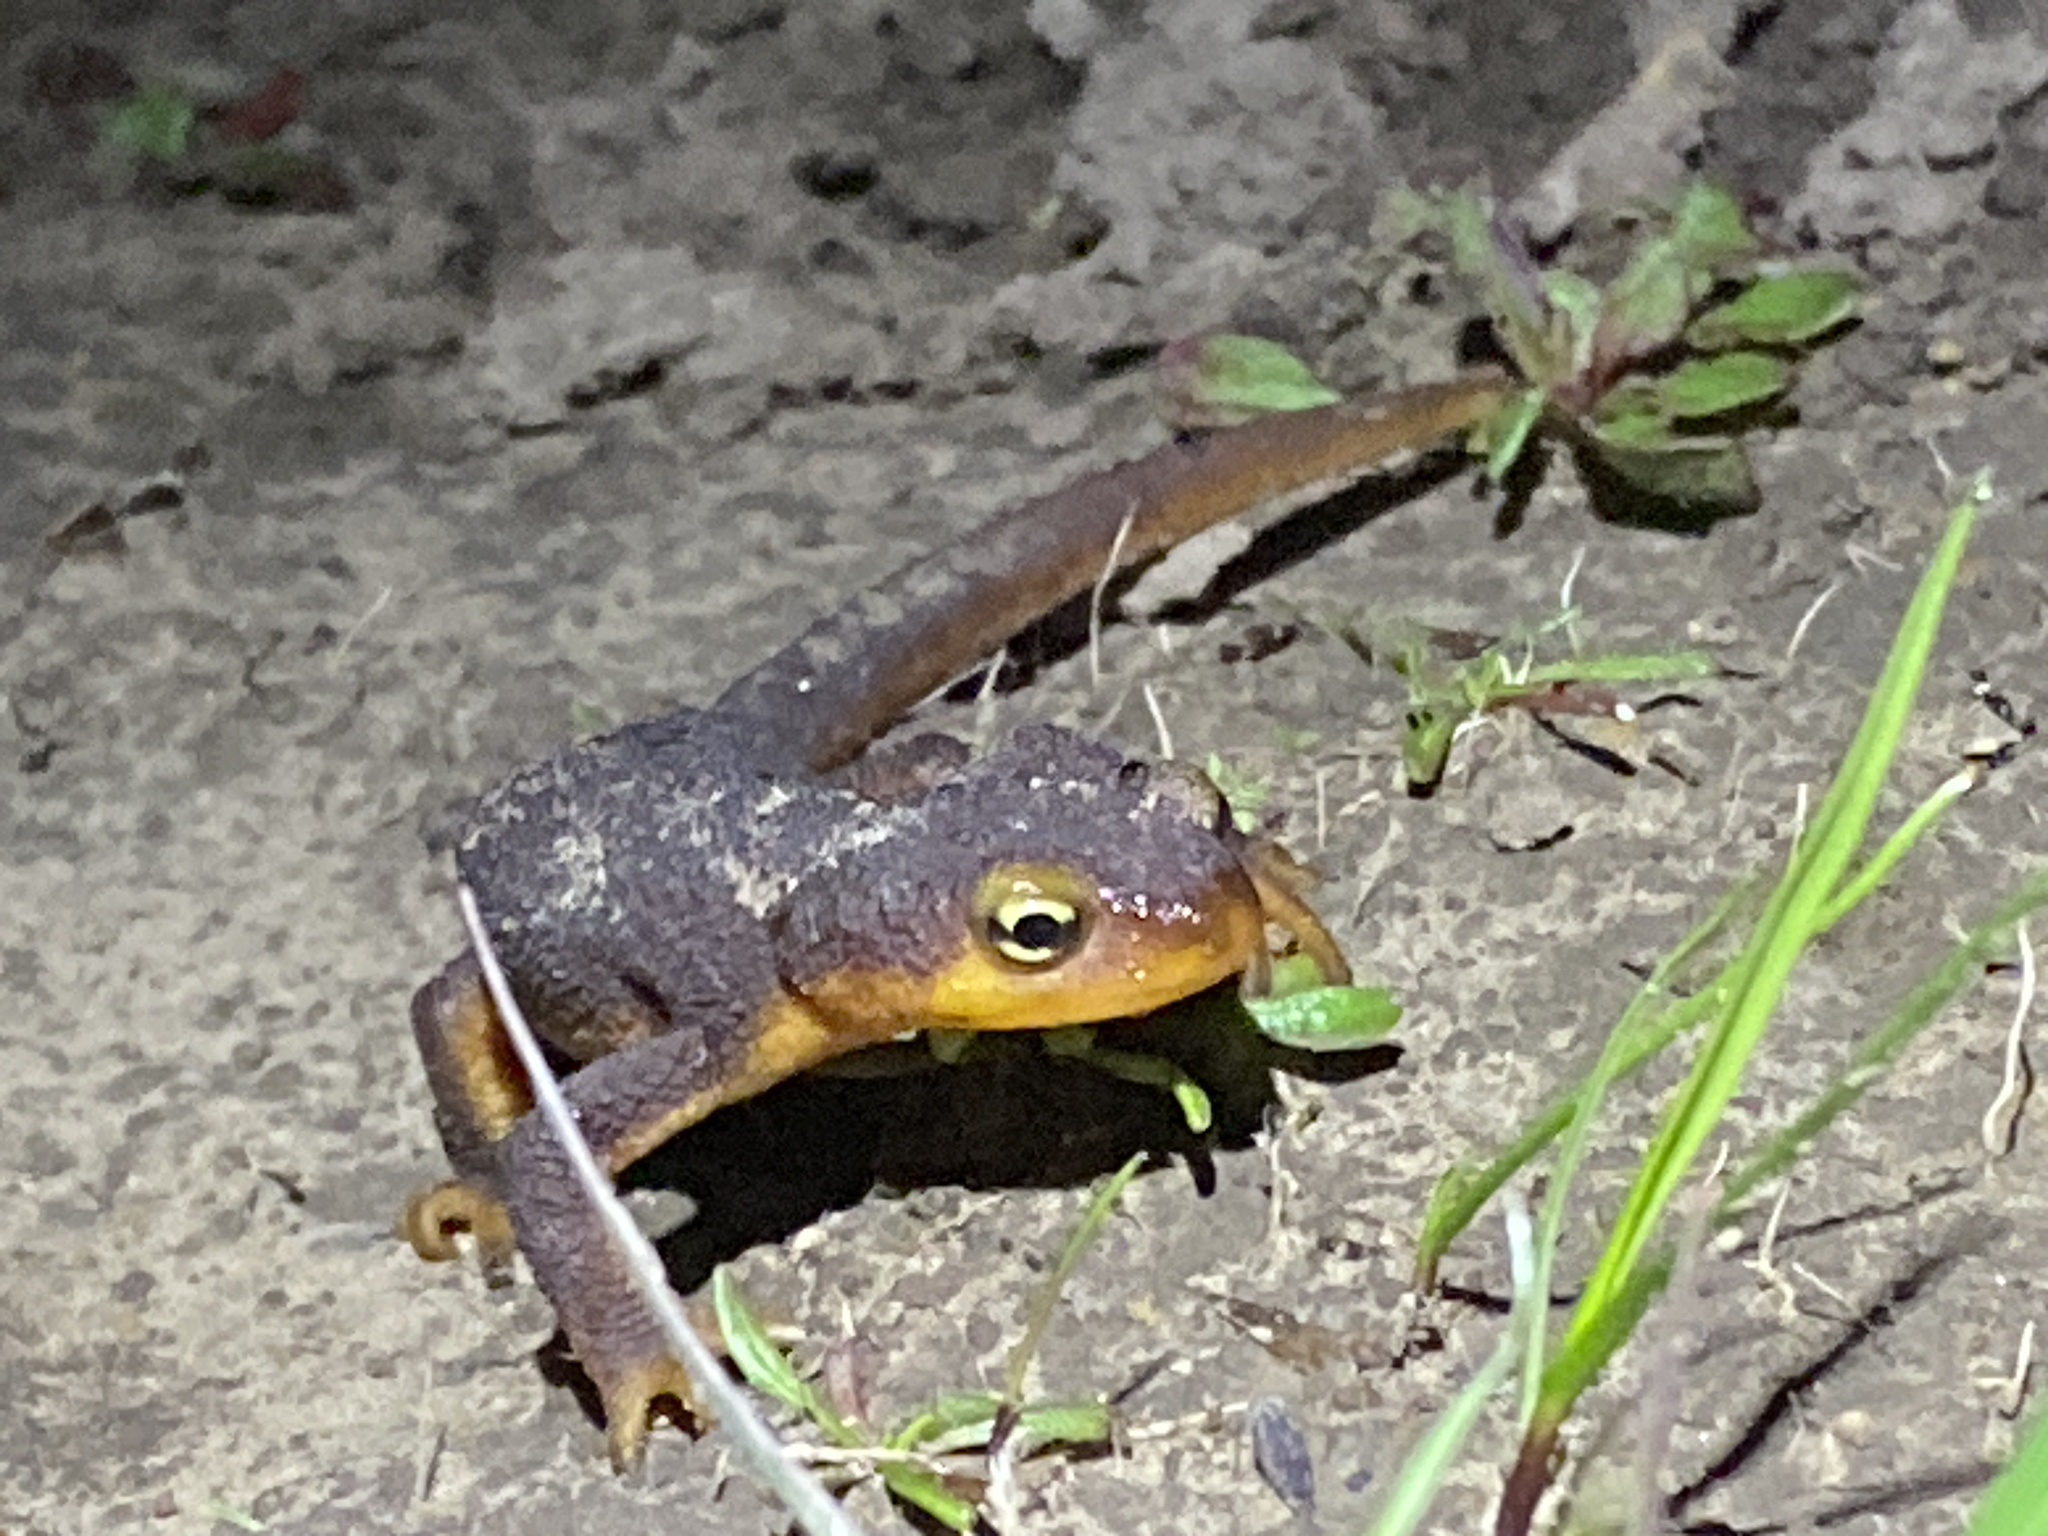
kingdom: Animalia
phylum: Chordata
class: Amphibia
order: Caudata
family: Salamandridae
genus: Taricha
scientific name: Taricha torosa
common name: California newt
